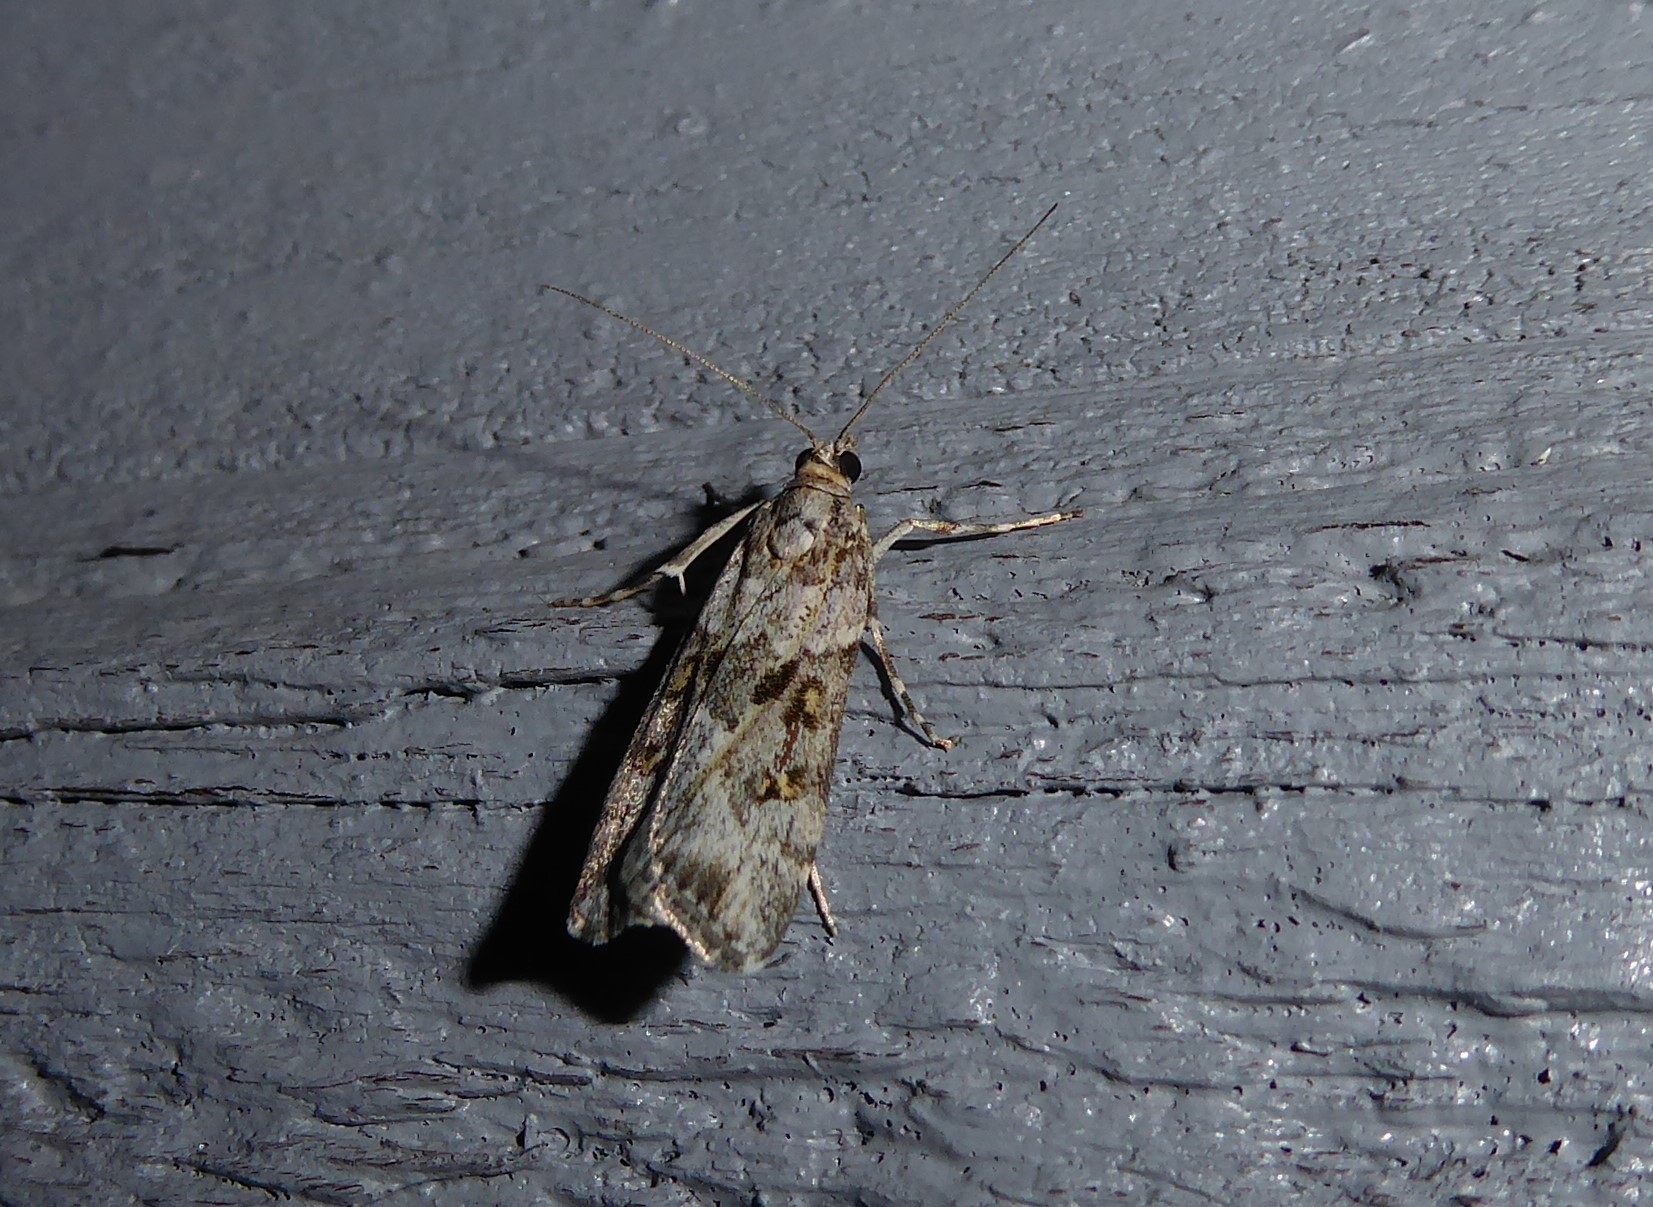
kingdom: Animalia
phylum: Arthropoda
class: Insecta
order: Lepidoptera
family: Crambidae
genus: Eudonia
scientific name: Eudonia diphtheralis
